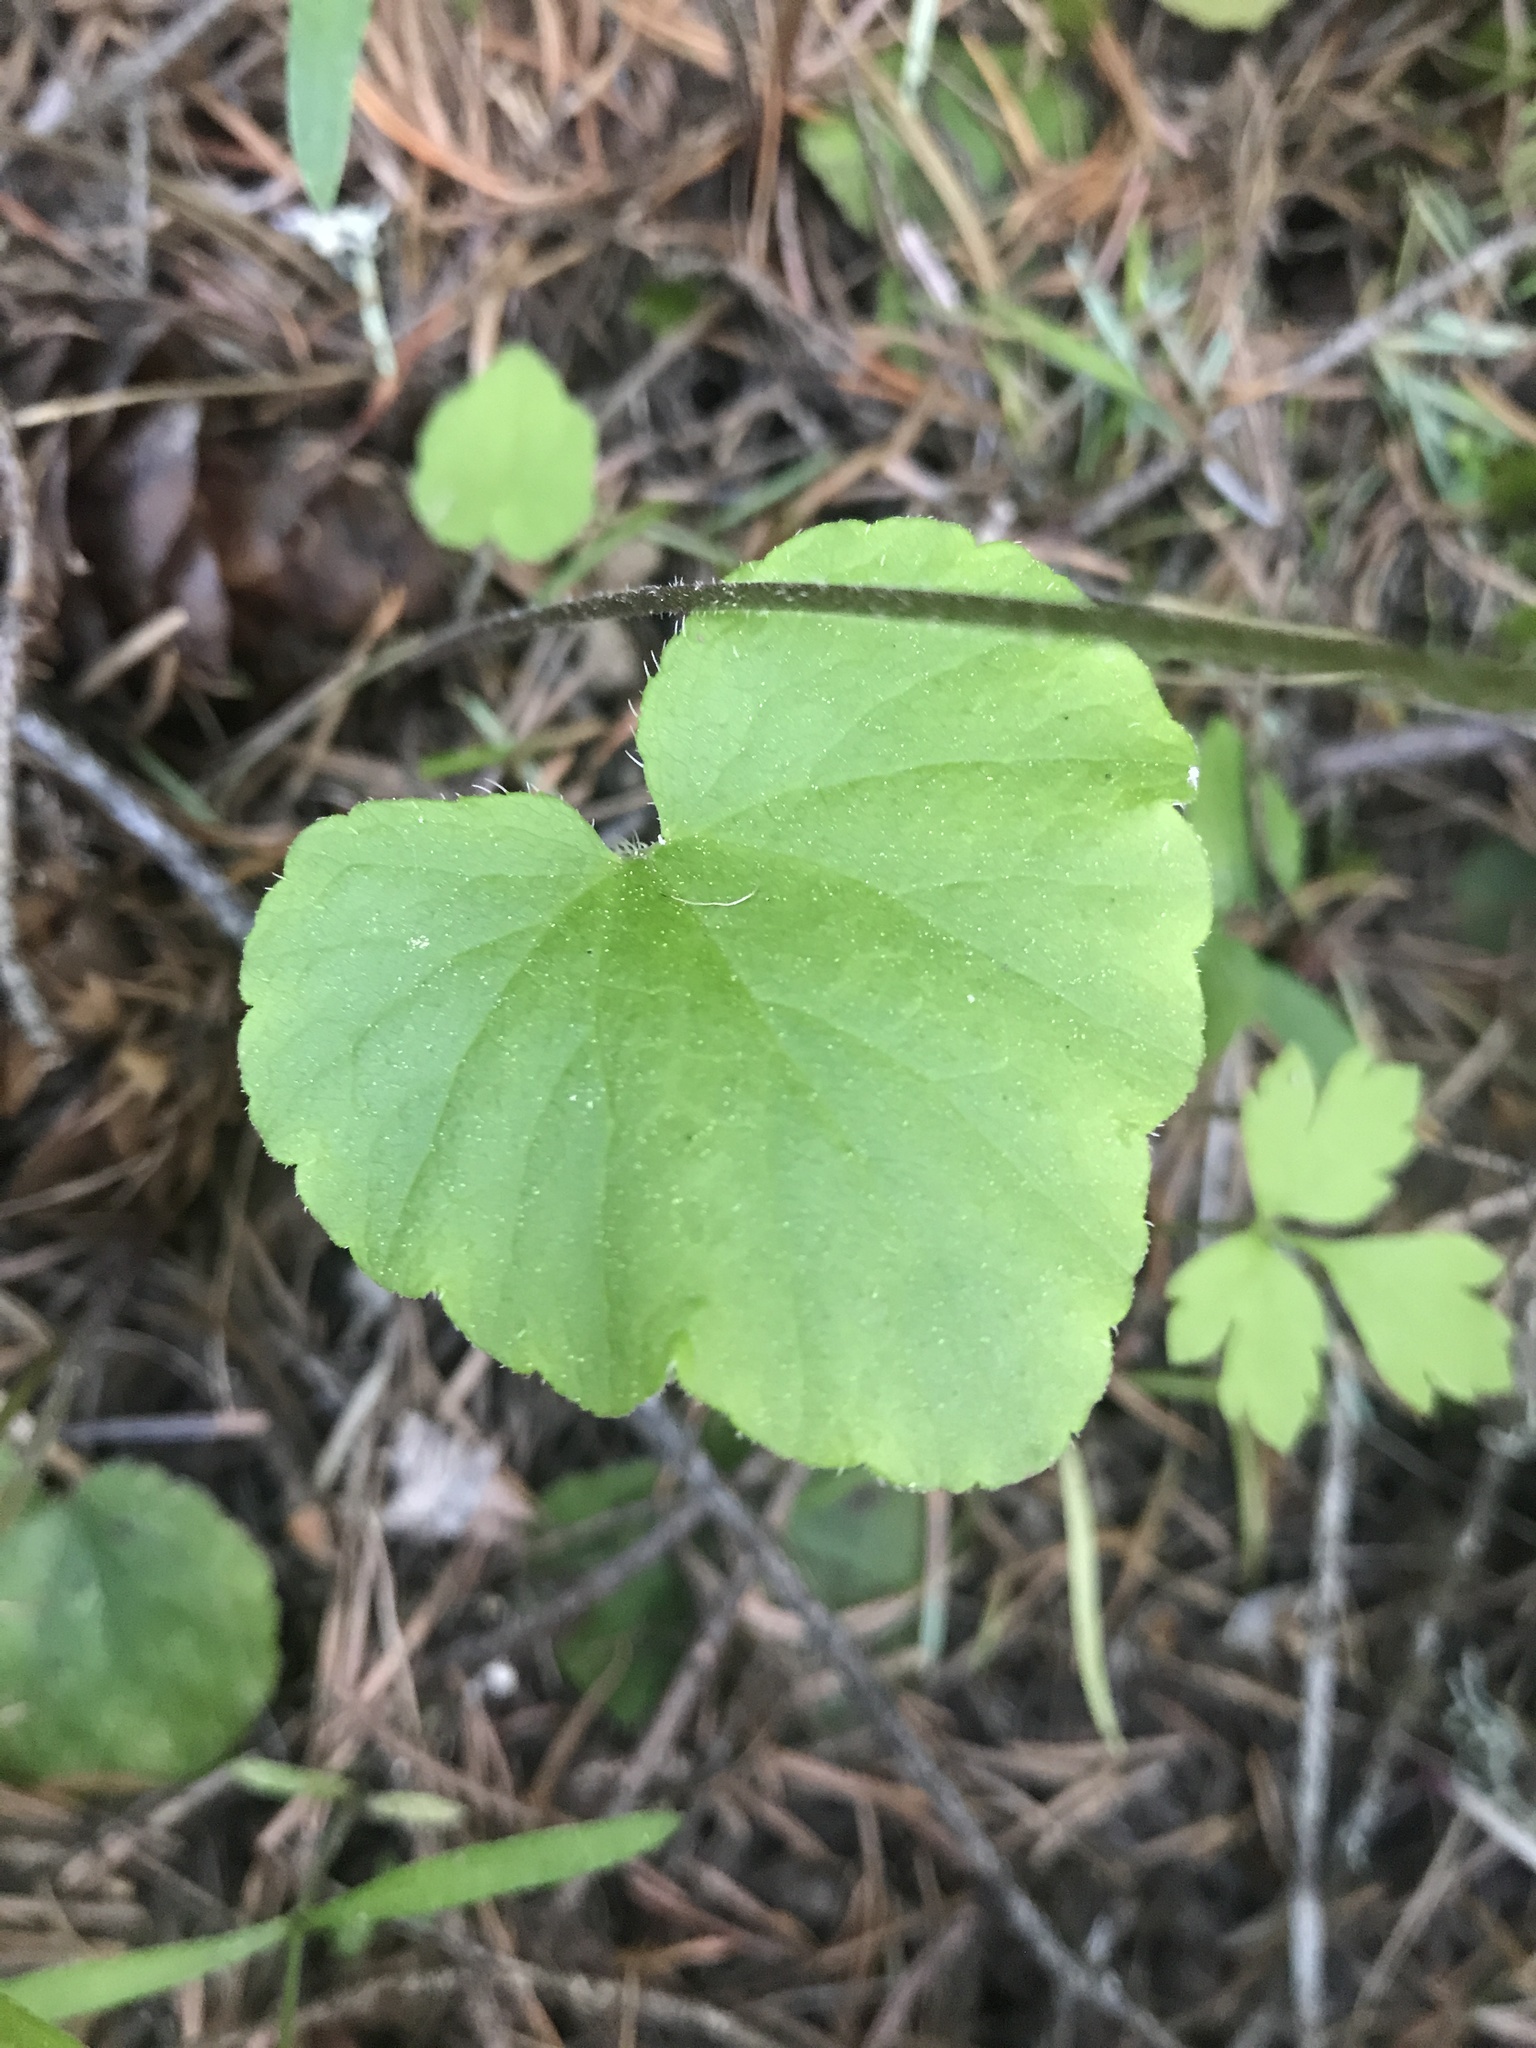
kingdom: Plantae
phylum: Tracheophyta
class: Magnoliopsida
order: Saxifragales
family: Saxifragaceae
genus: Ozomelis
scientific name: Ozomelis trifida
